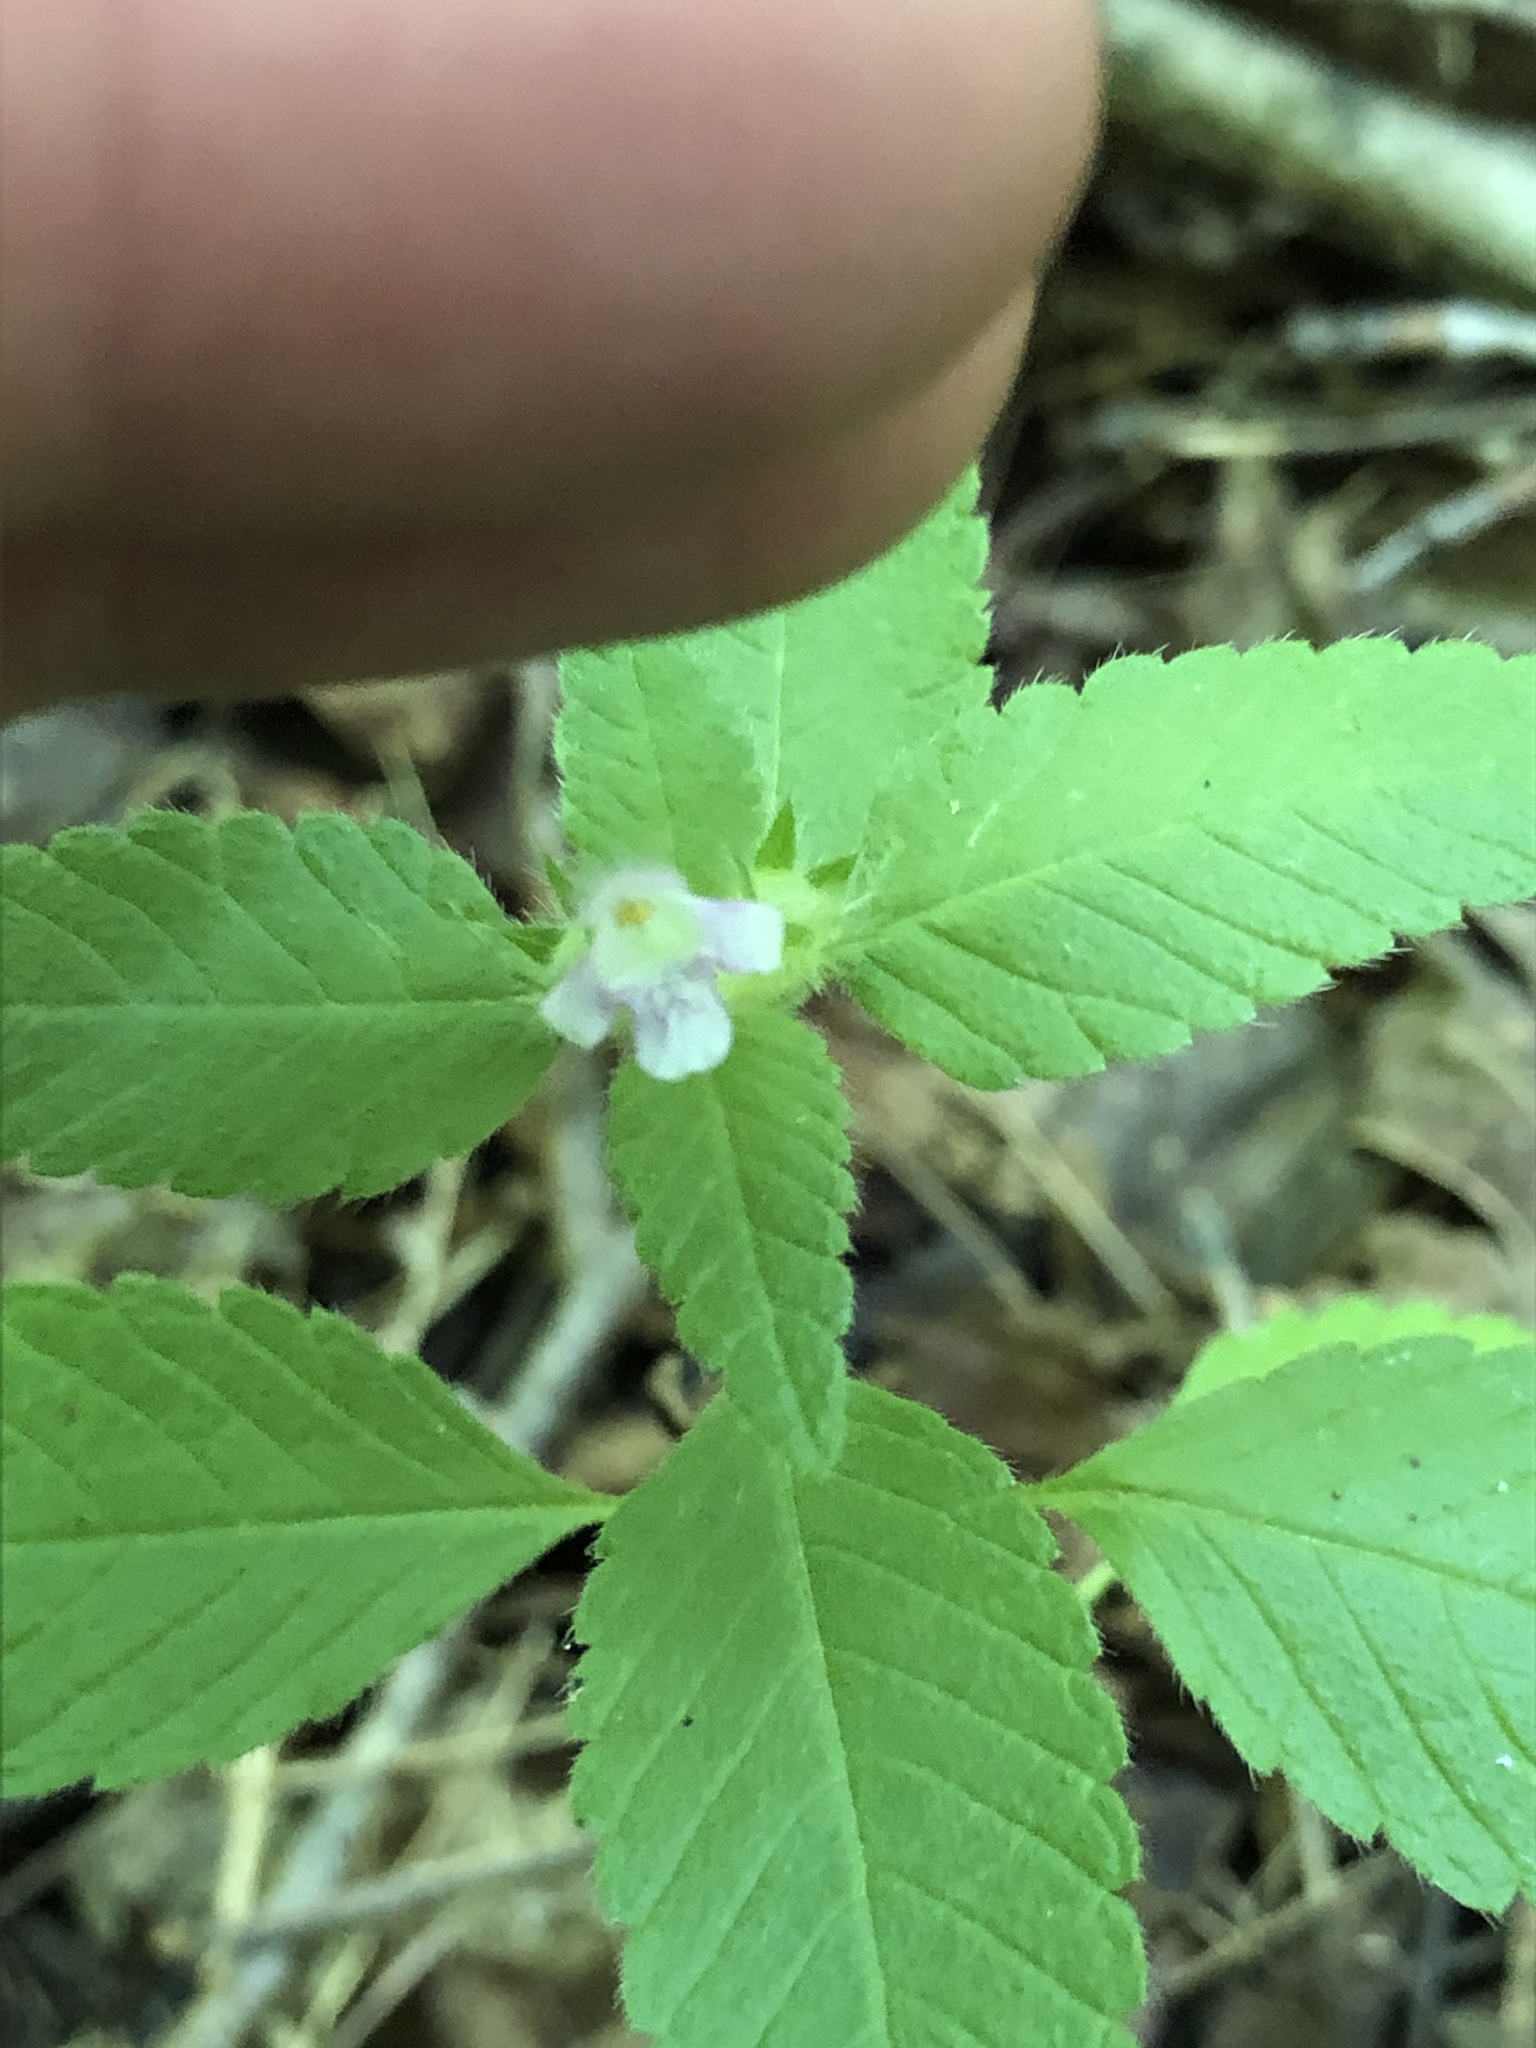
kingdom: Plantae
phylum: Tracheophyta
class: Magnoliopsida
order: Lamiales
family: Lamiaceae
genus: Galeopsis
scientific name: Galeopsis tetrahit
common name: Common hemp-nettle
